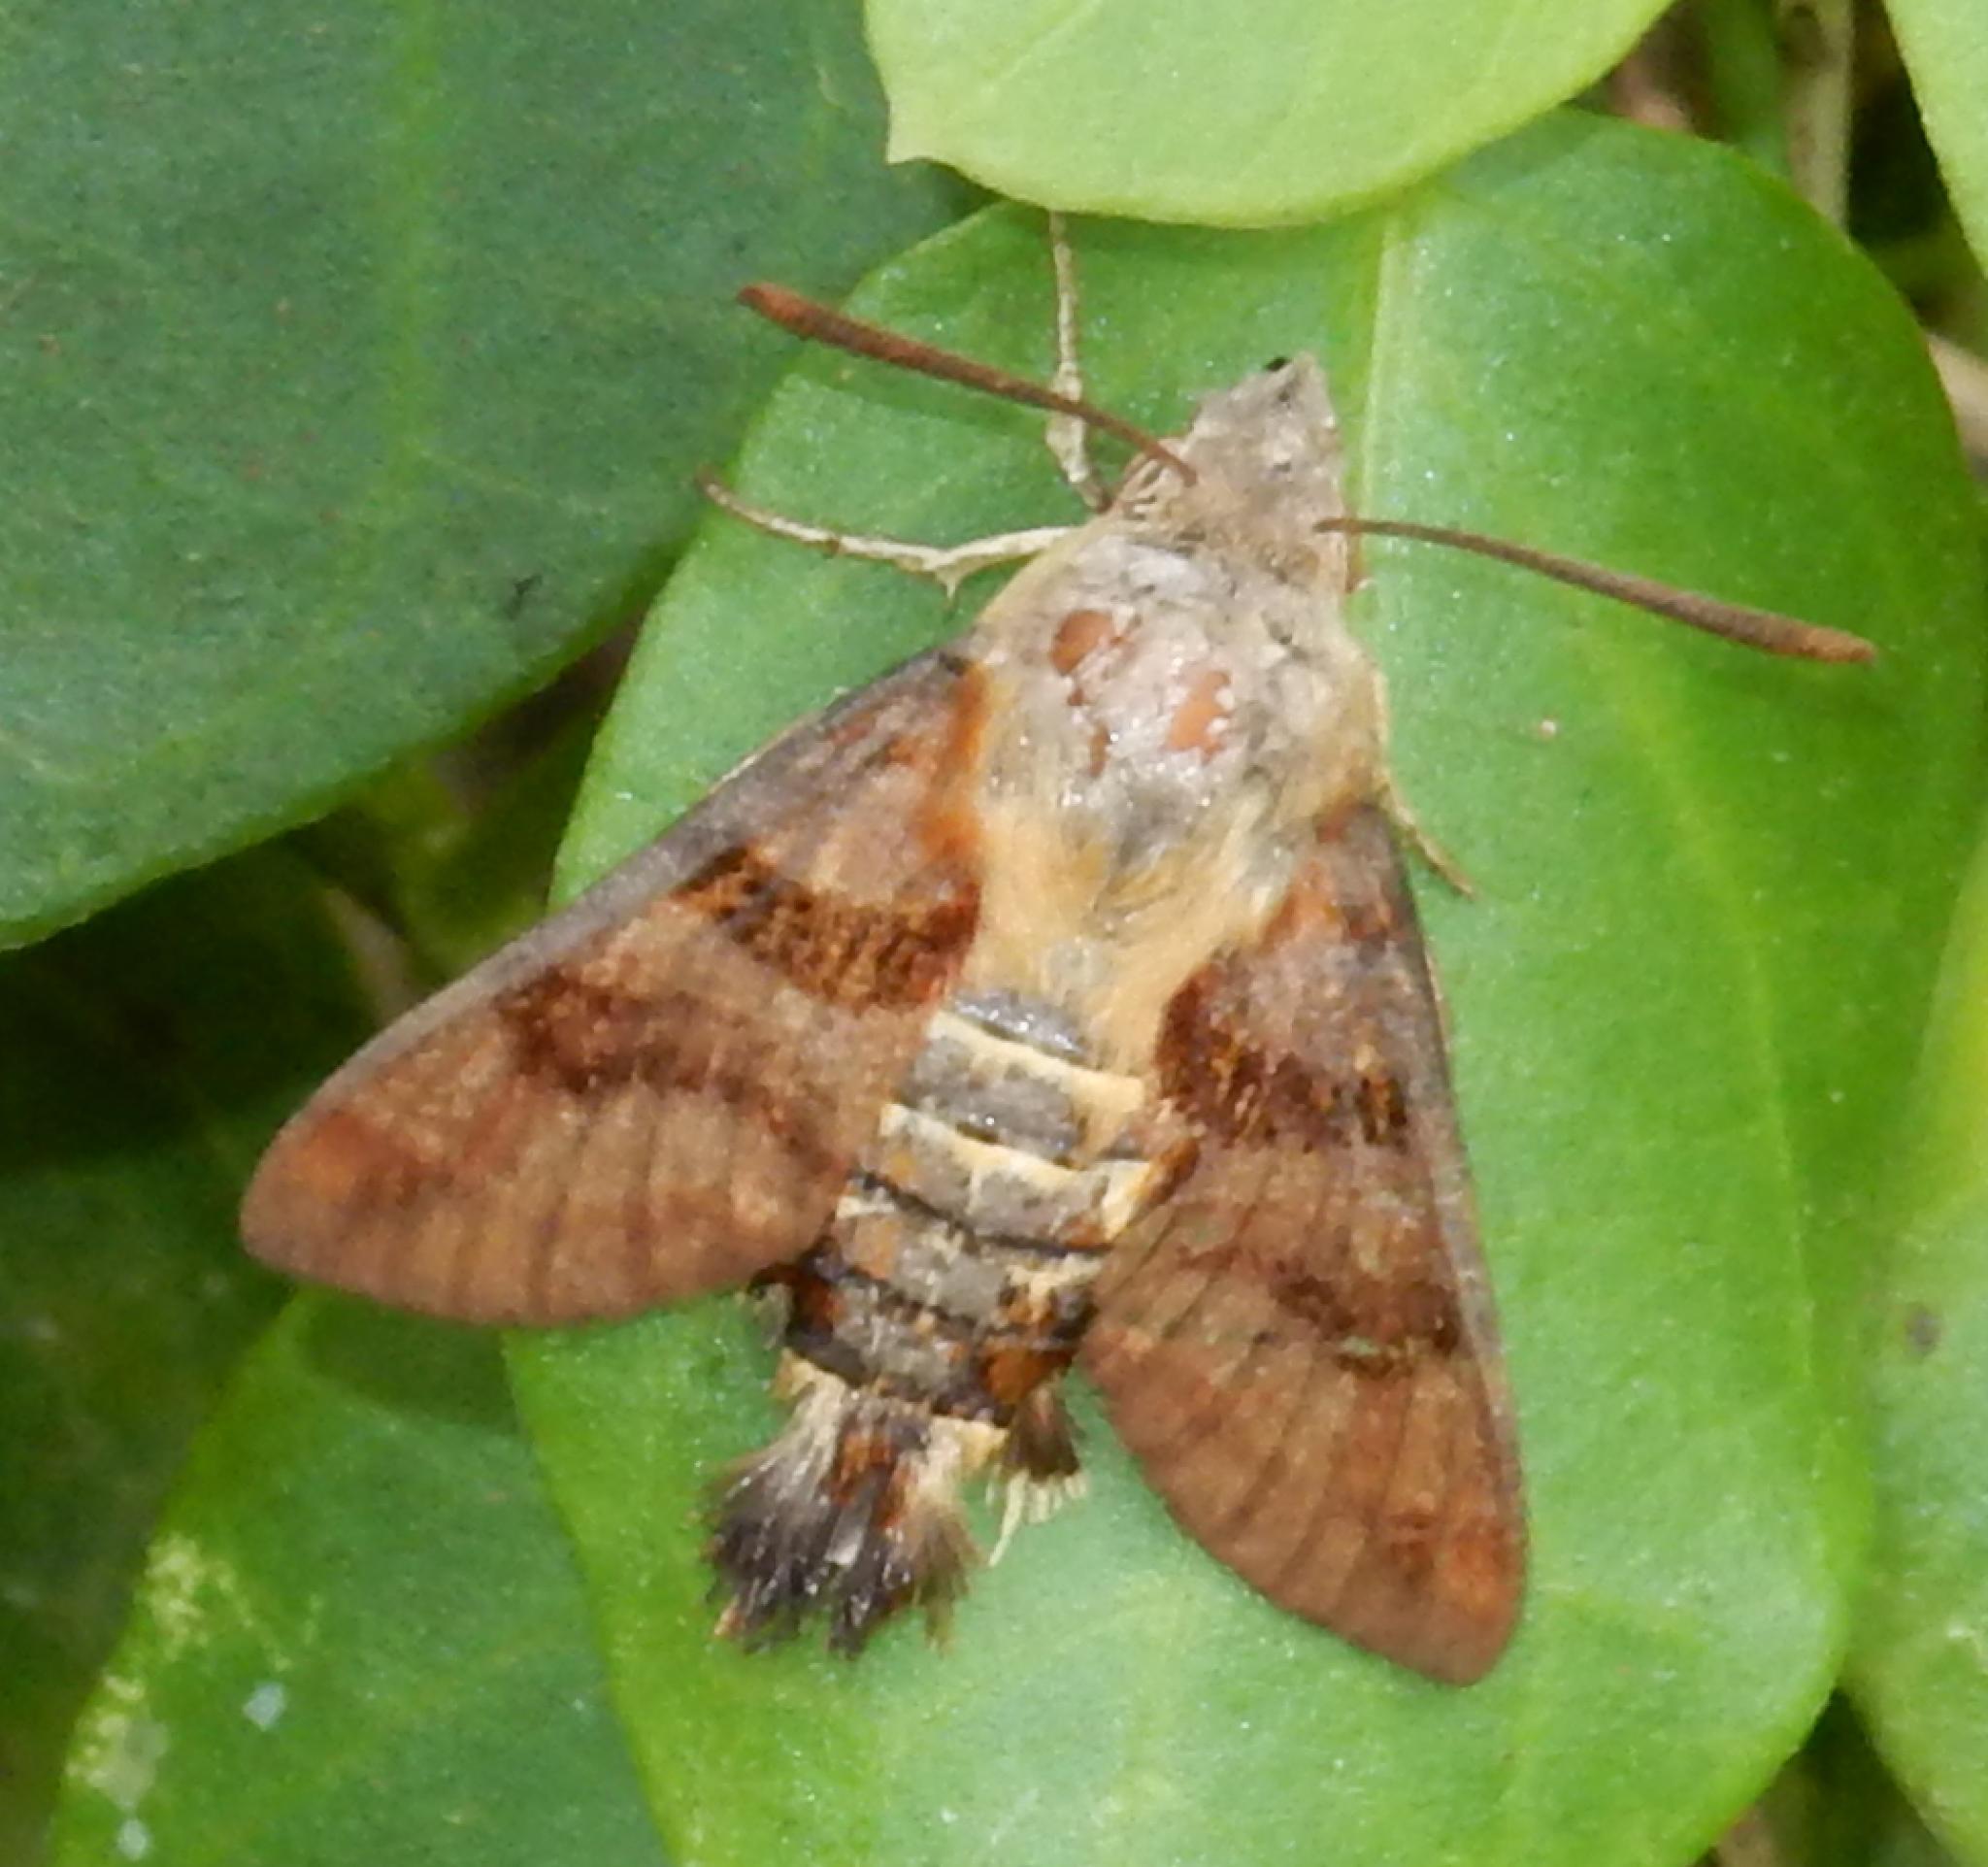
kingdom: Animalia
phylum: Arthropoda
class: Insecta
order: Lepidoptera
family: Sphingidae
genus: Macroglossum
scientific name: Macroglossum trochilus
